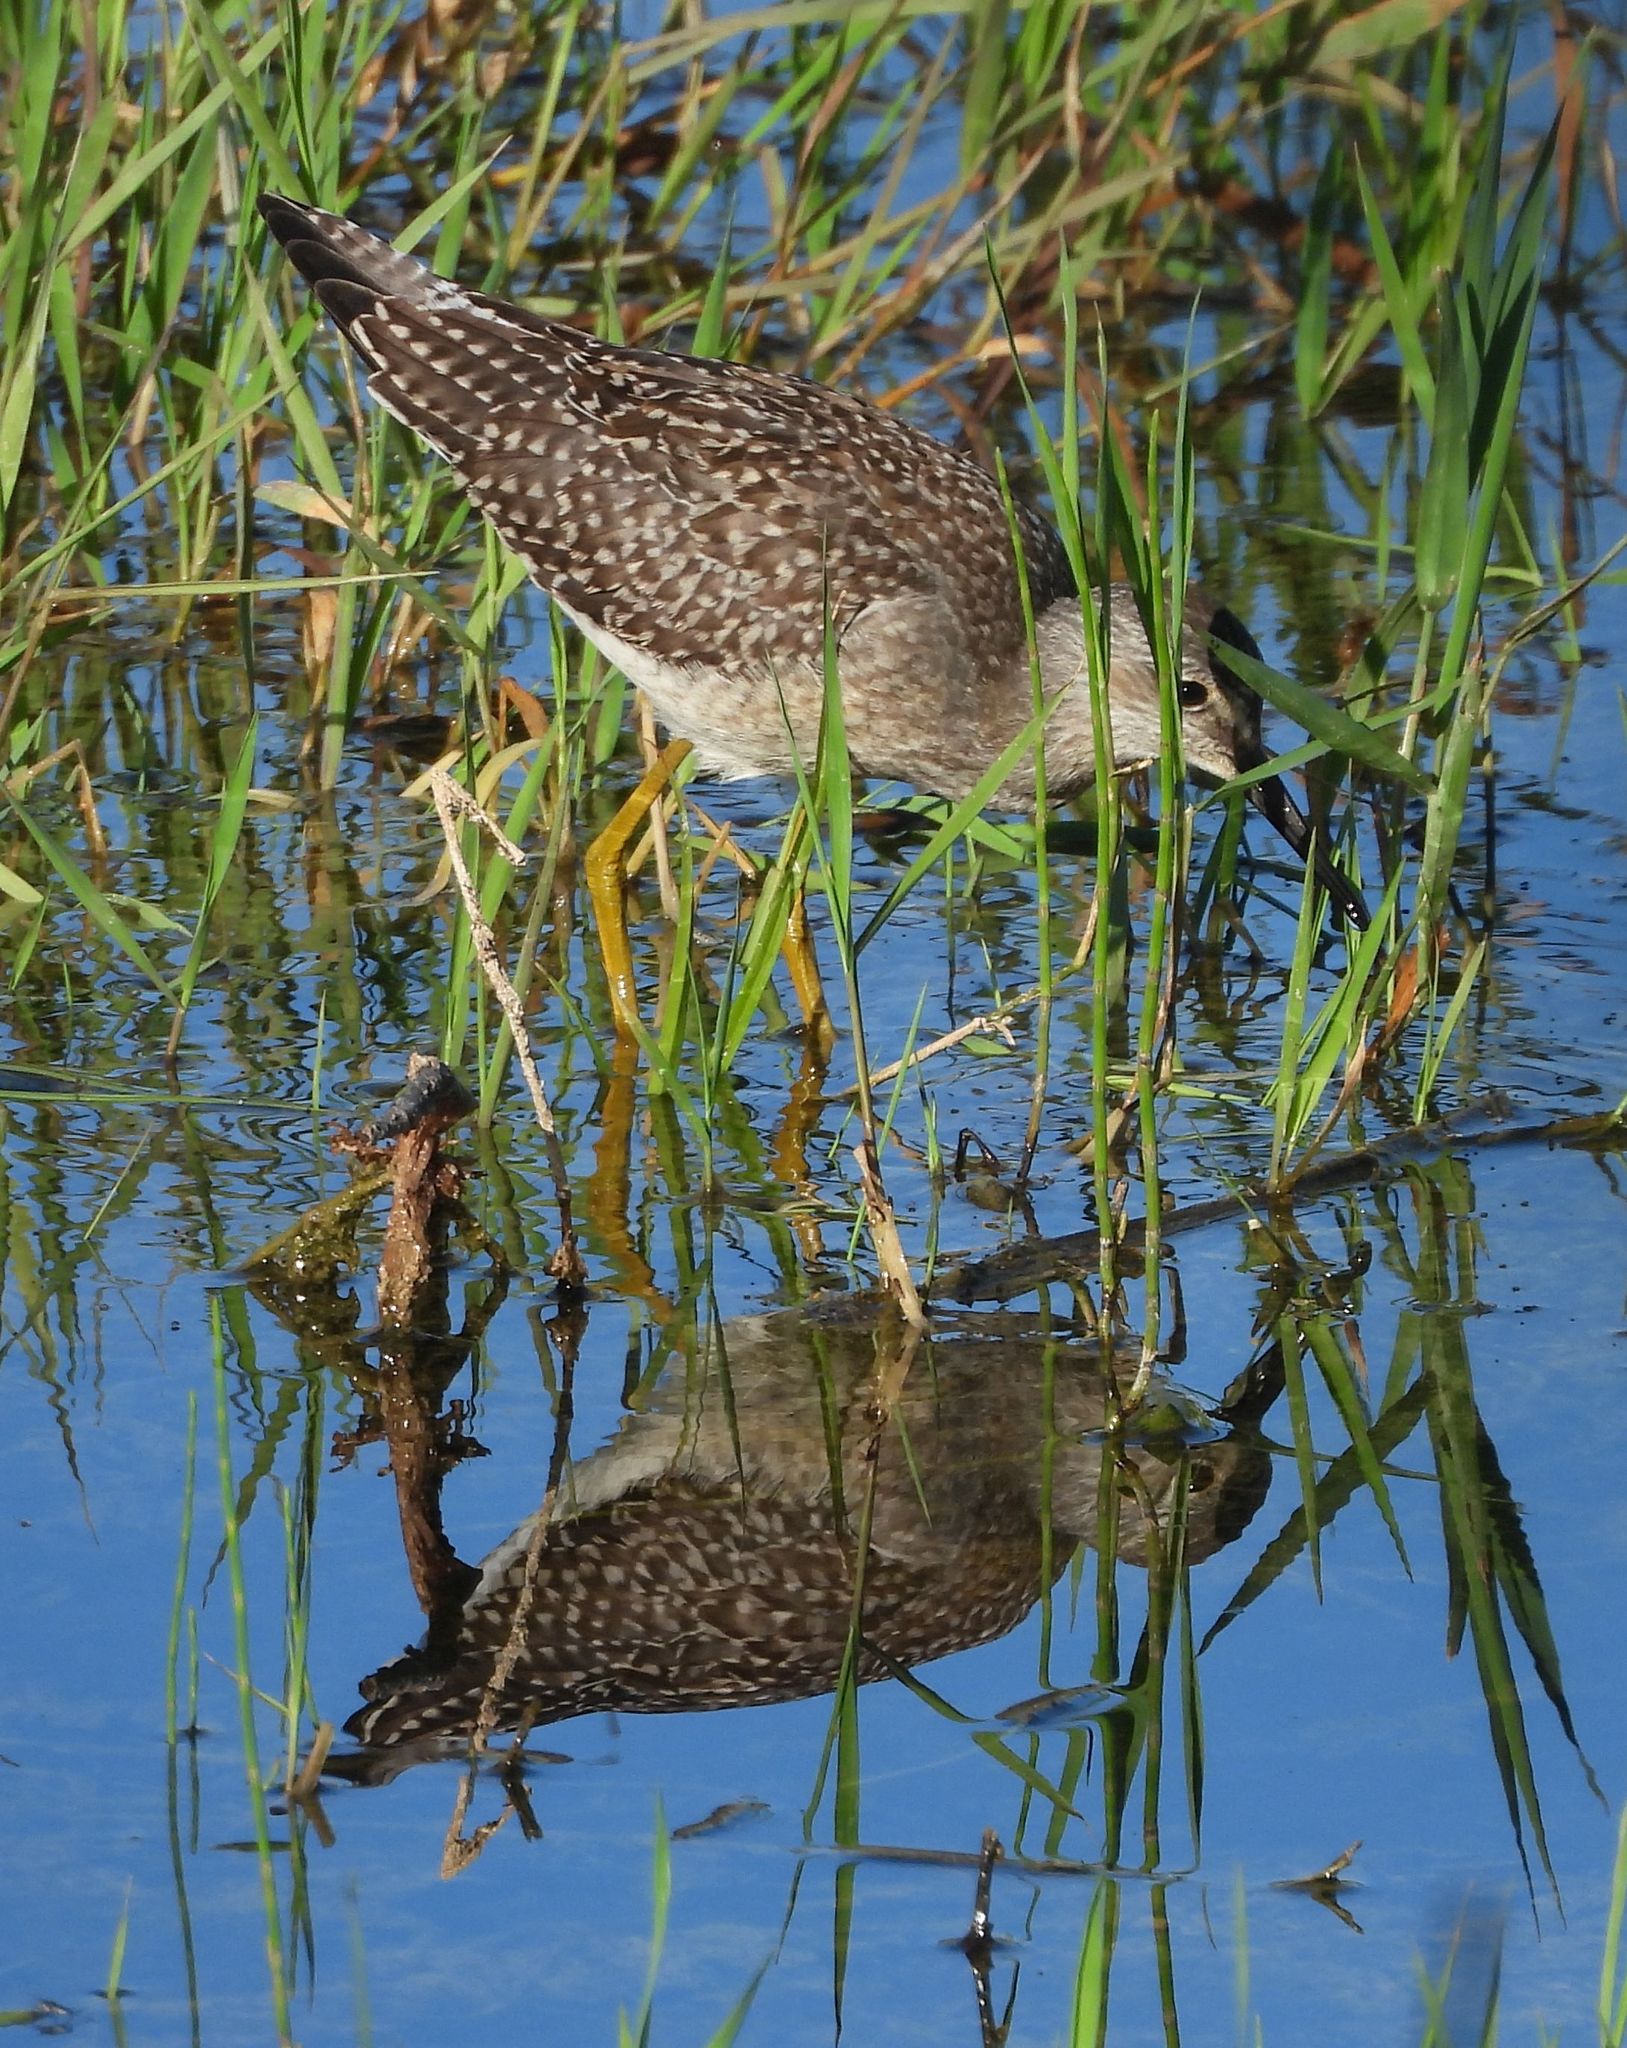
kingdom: Animalia
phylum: Chordata
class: Aves
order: Charadriiformes
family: Scolopacidae
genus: Tringa
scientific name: Tringa flavipes
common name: Lesser yellowlegs
